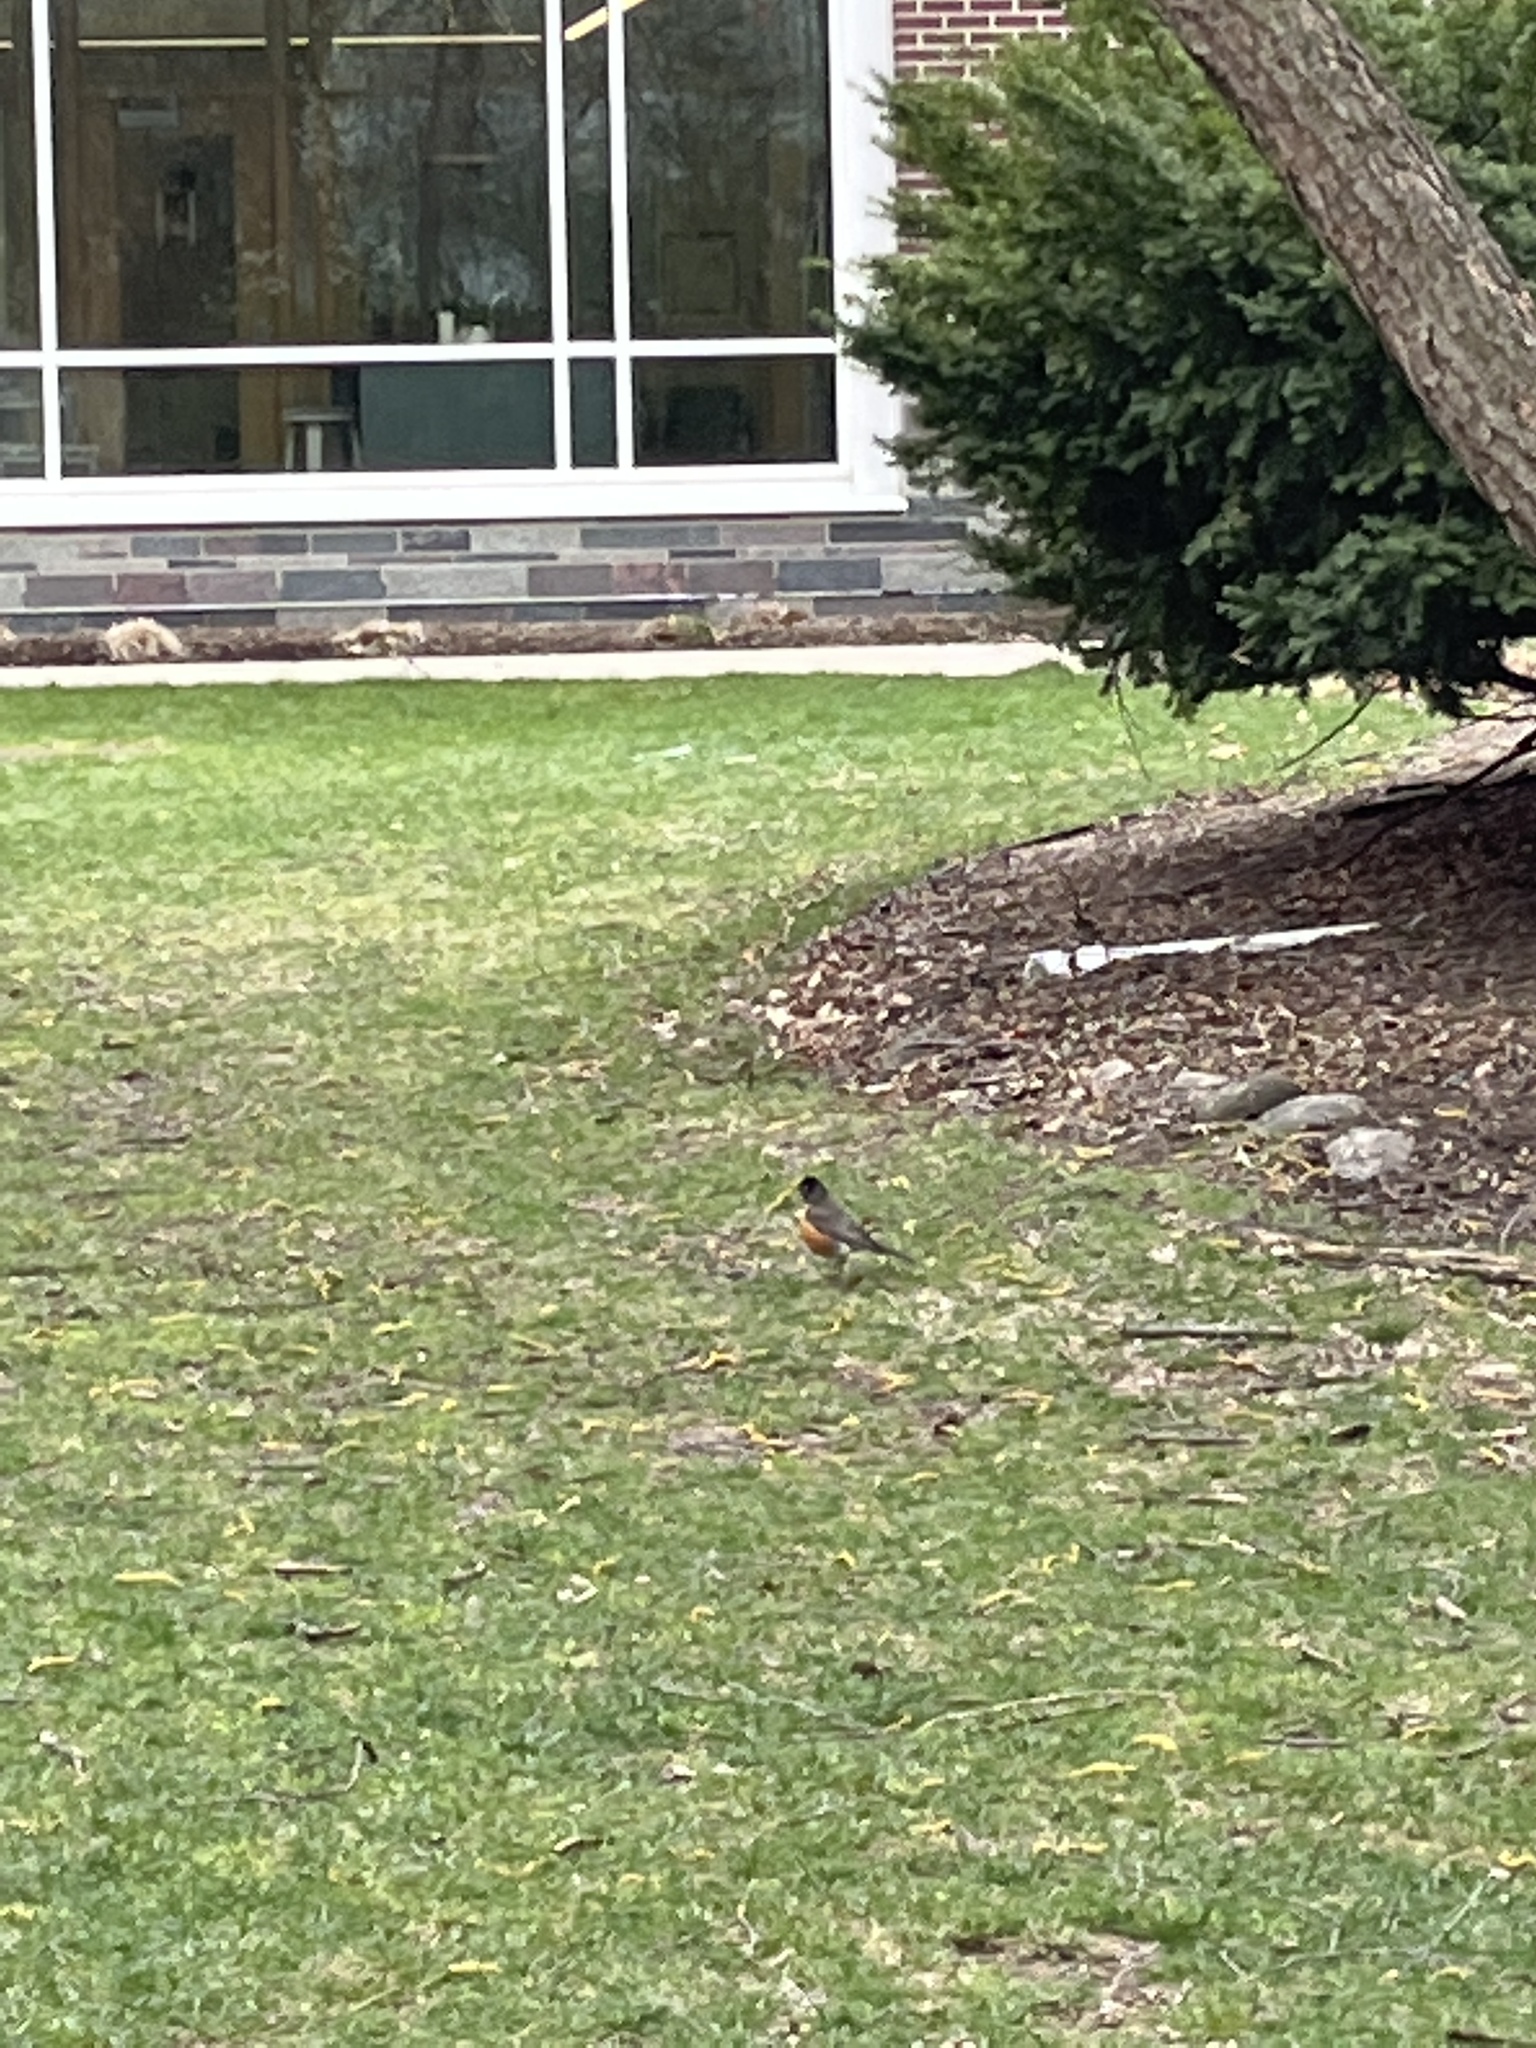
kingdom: Animalia
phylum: Chordata
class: Aves
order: Passeriformes
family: Turdidae
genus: Turdus
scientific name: Turdus migratorius
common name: American robin
